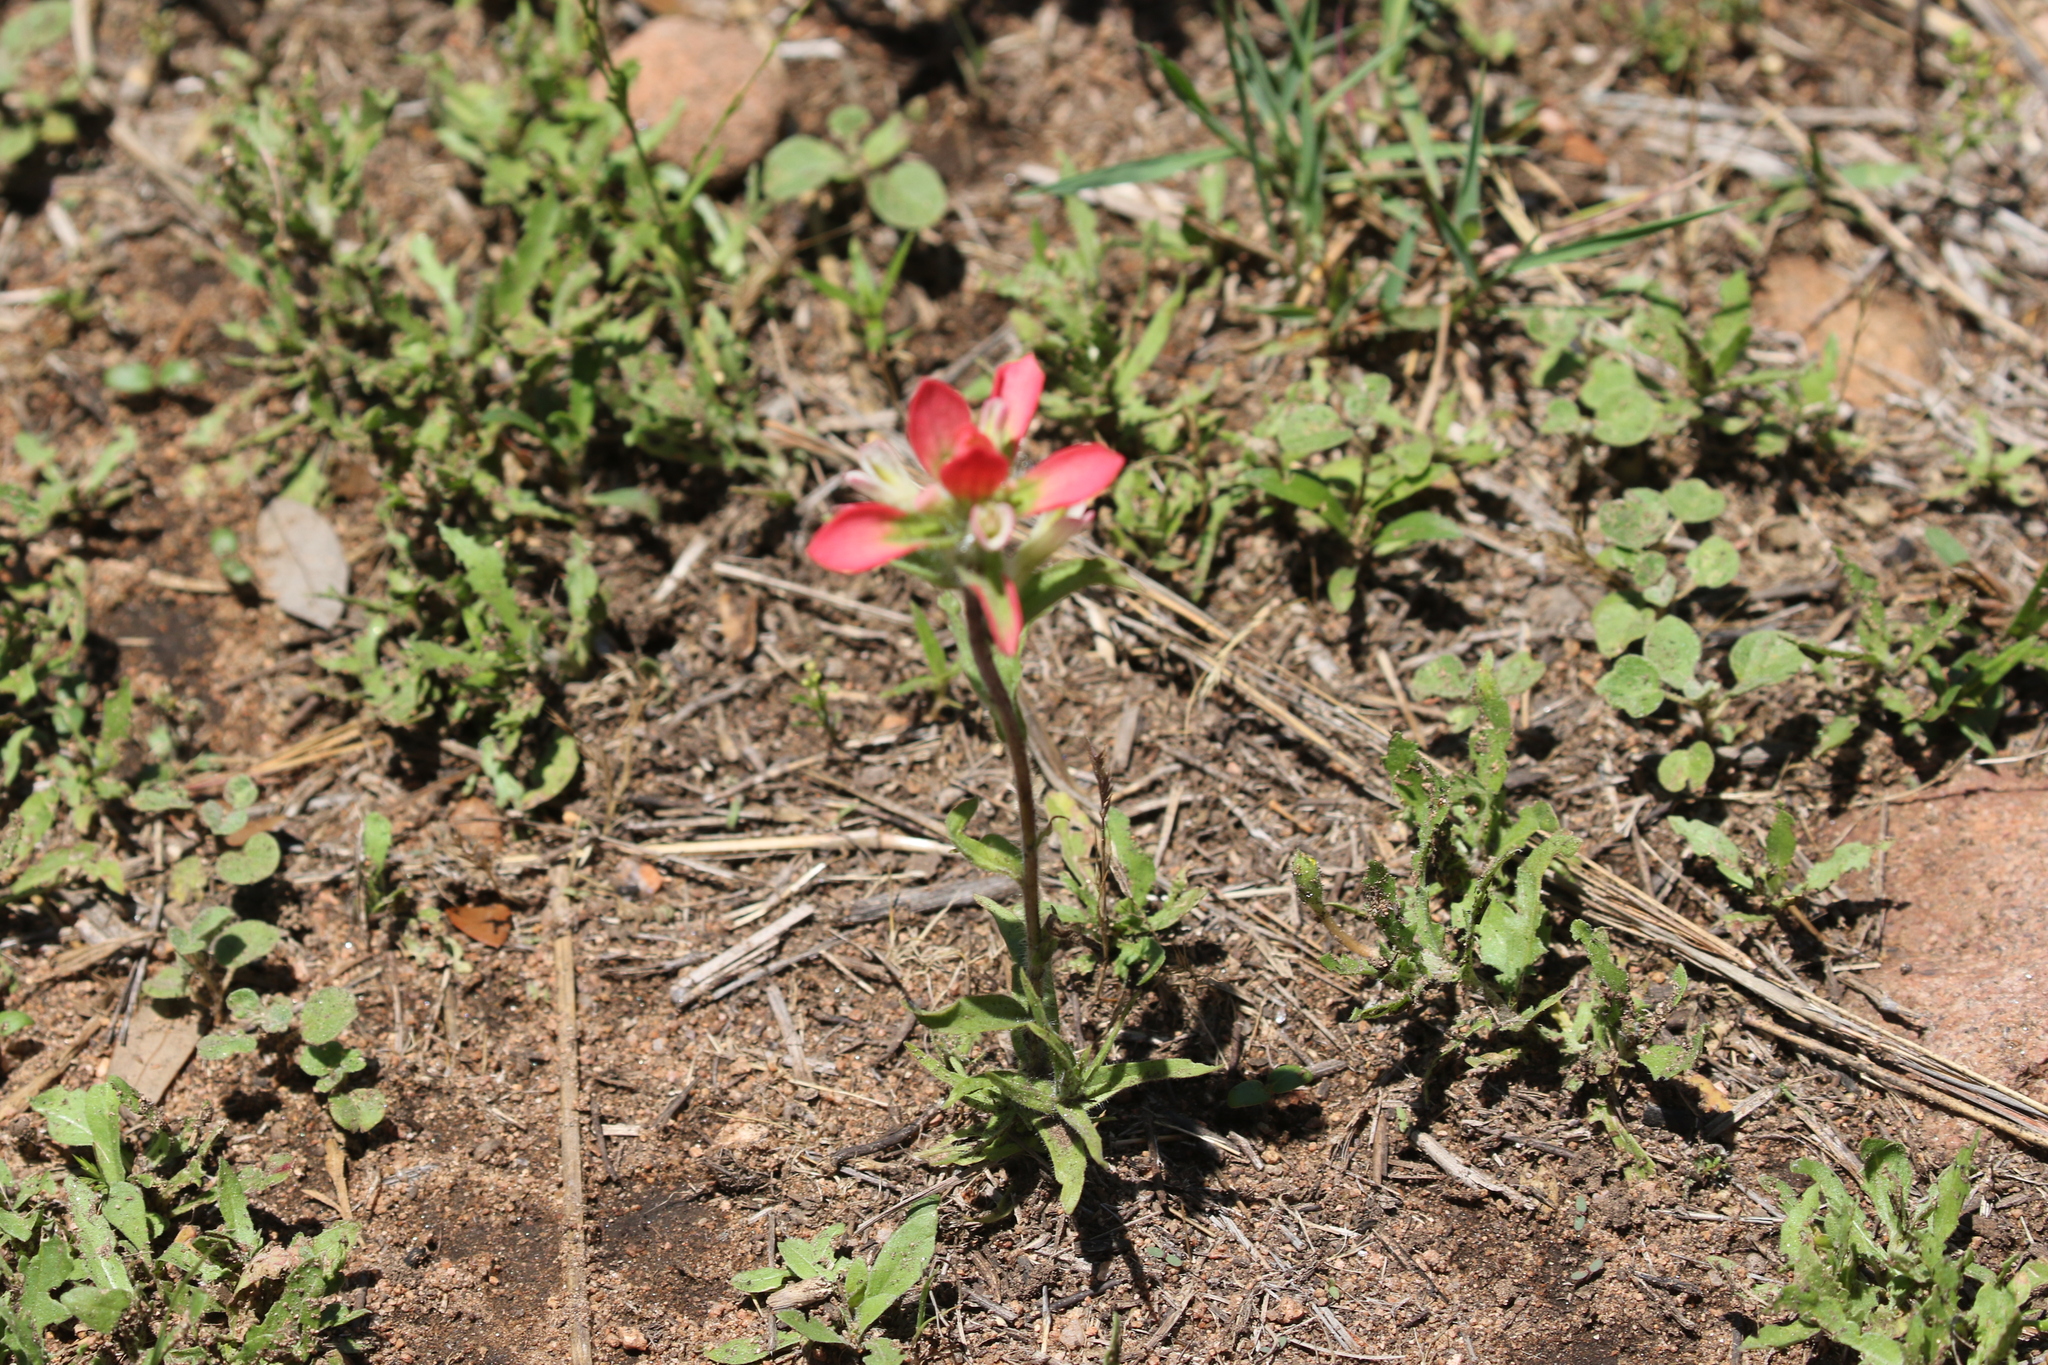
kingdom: Plantae
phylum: Tracheophyta
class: Magnoliopsida
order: Lamiales
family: Orobanchaceae
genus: Castilleja
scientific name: Castilleja indivisa
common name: Texas paintbrush
